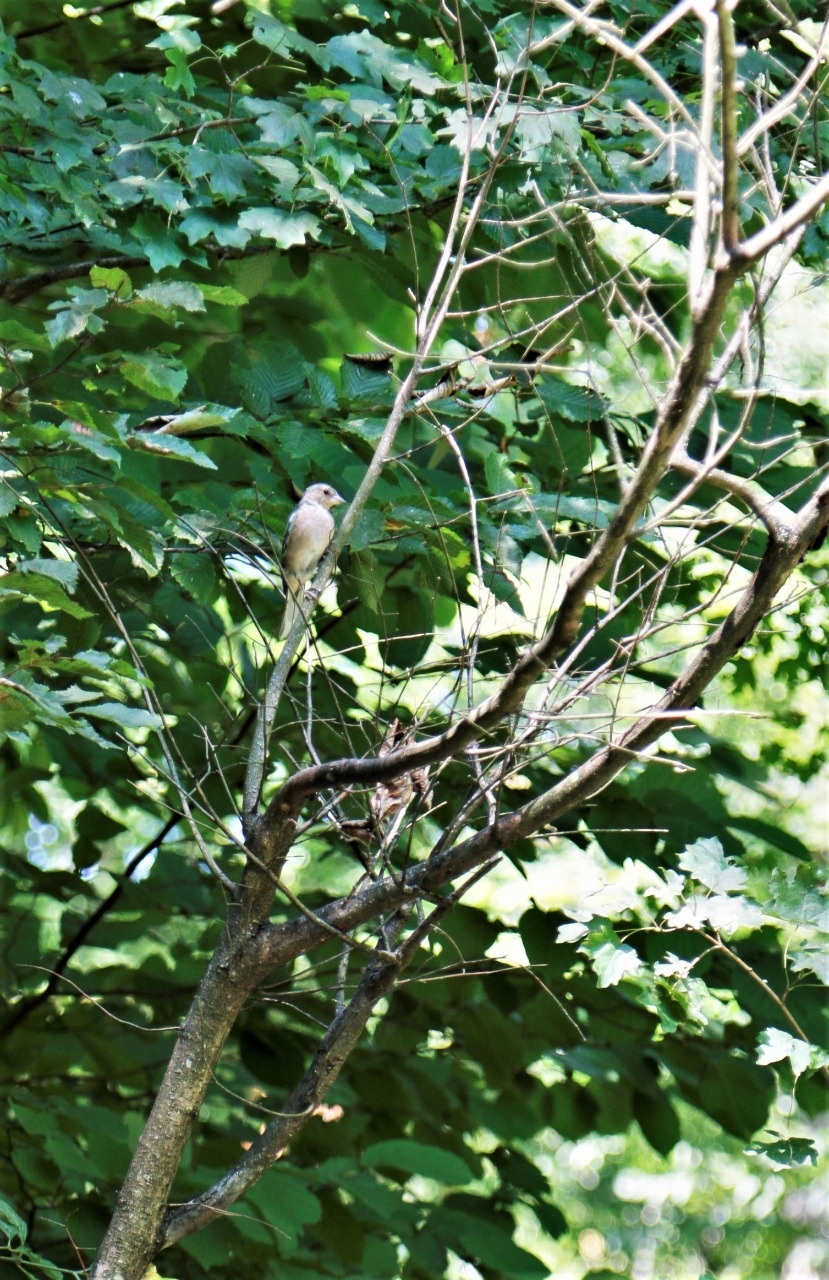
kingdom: Animalia
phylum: Chordata
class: Aves
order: Passeriformes
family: Fringillidae
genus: Fringilla
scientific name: Fringilla coelebs
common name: Common chaffinch
